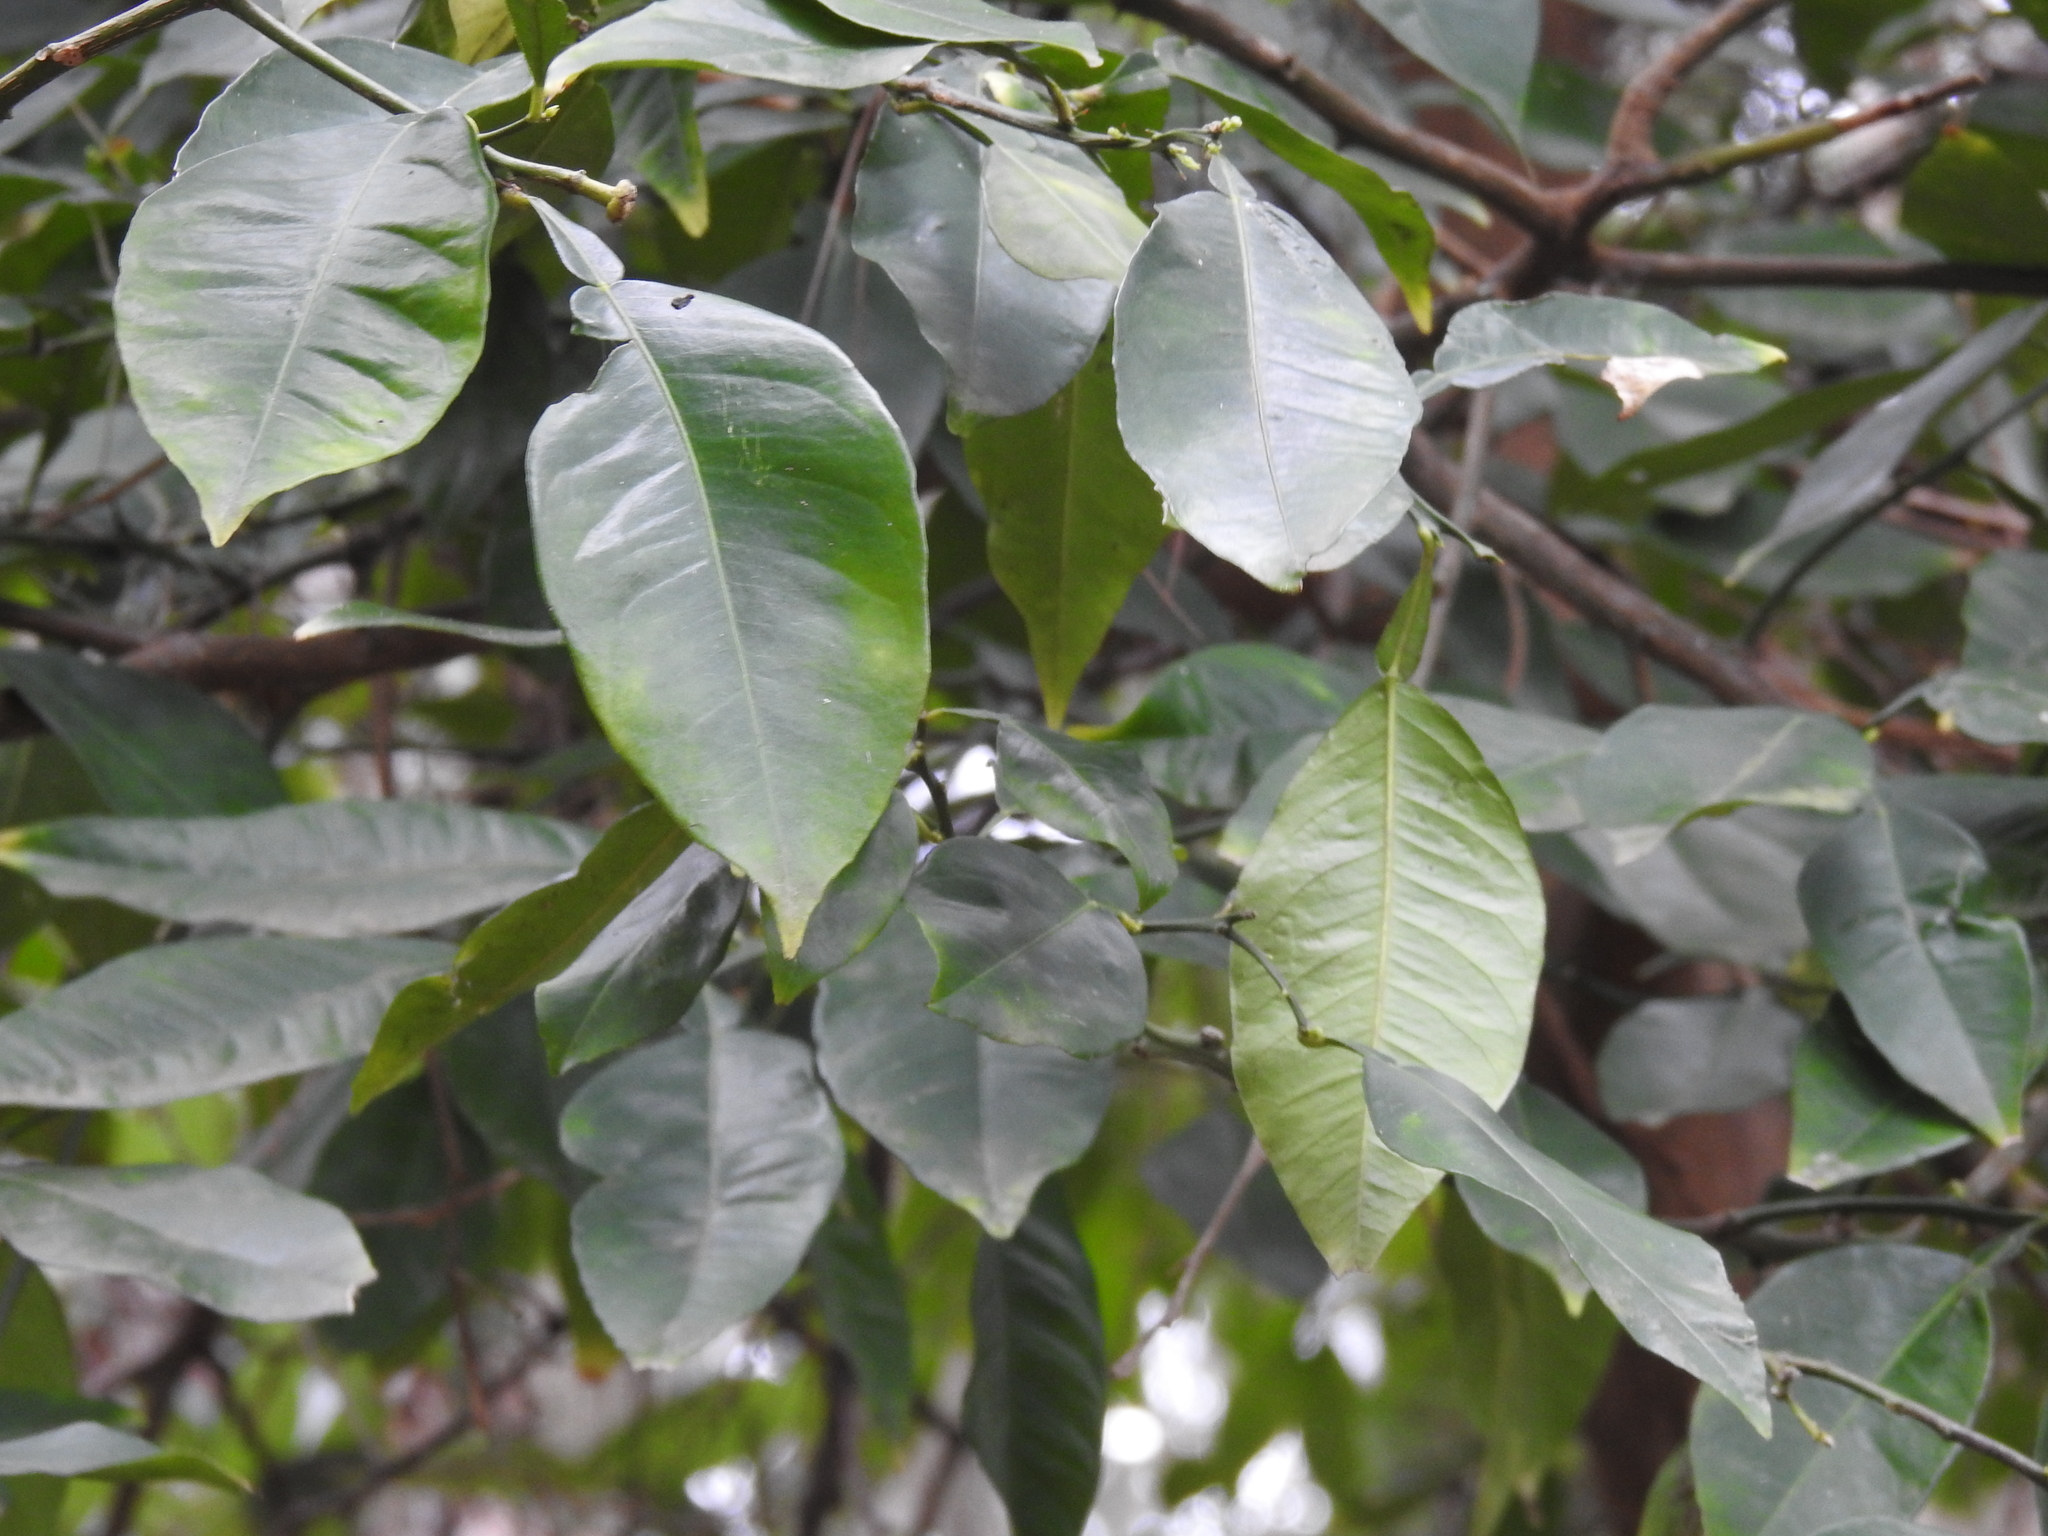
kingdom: Plantae
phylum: Tracheophyta
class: Magnoliopsida
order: Sapindales
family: Rutaceae
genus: Citrus
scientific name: Citrus aurantium
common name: Sour orange
